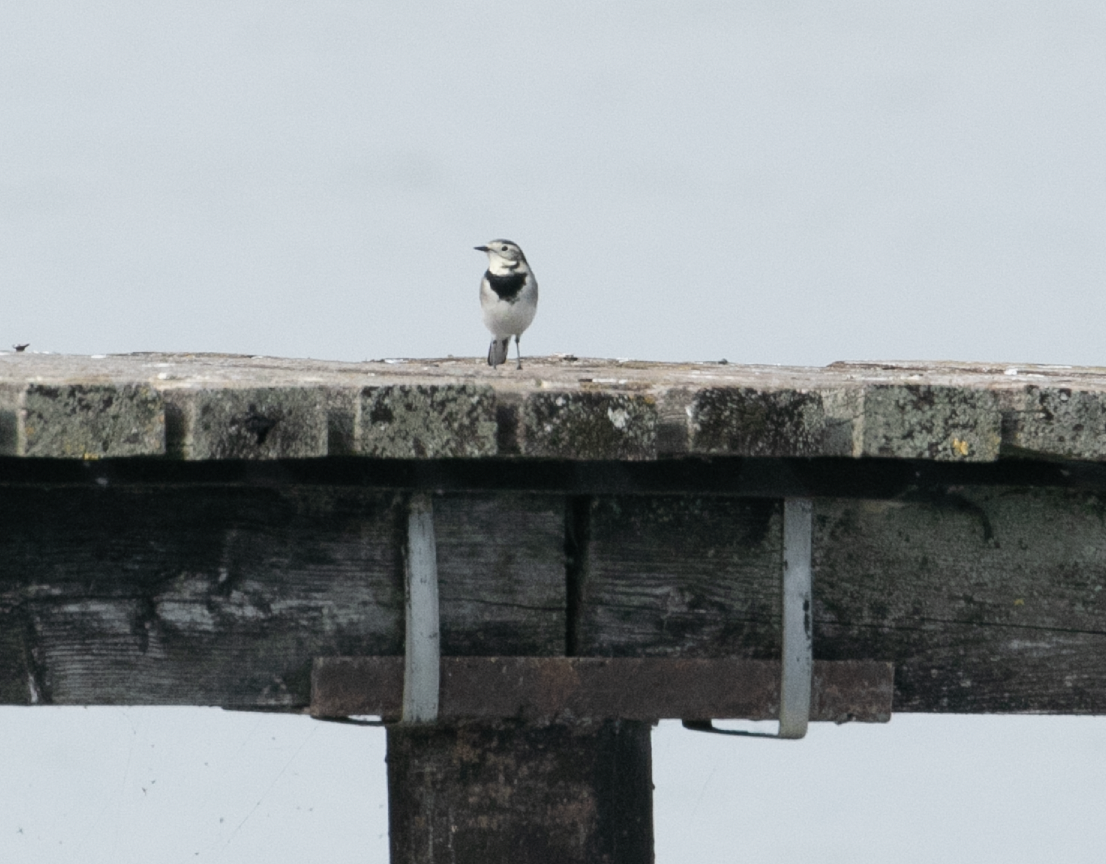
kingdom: Animalia
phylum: Chordata
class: Aves
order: Passeriformes
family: Motacillidae
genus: Motacilla
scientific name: Motacilla alba
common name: White wagtail
